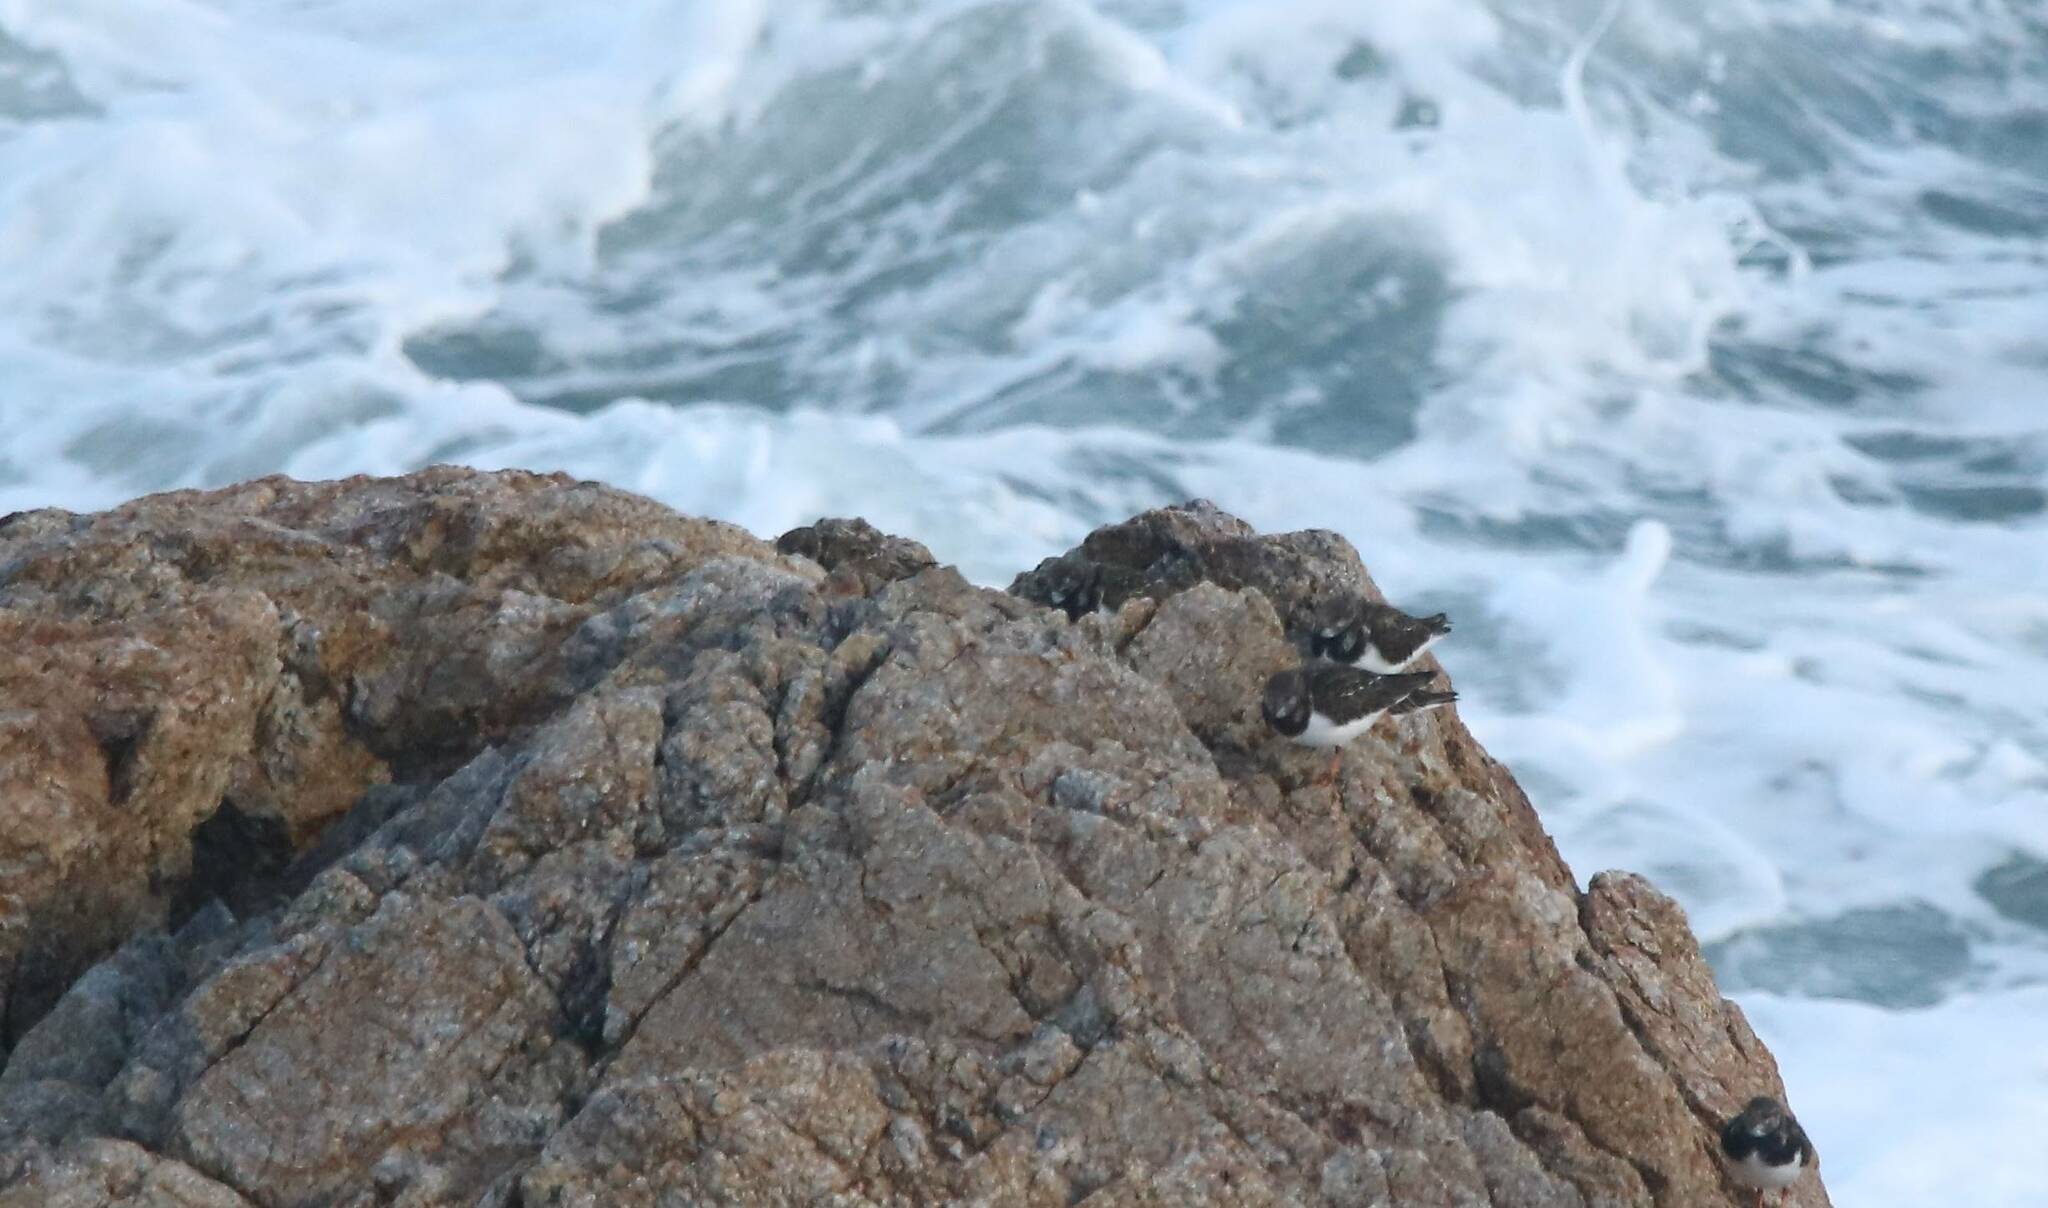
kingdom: Animalia
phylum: Chordata
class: Aves
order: Charadriiformes
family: Scolopacidae
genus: Arenaria
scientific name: Arenaria interpres
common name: Ruddy turnstone
